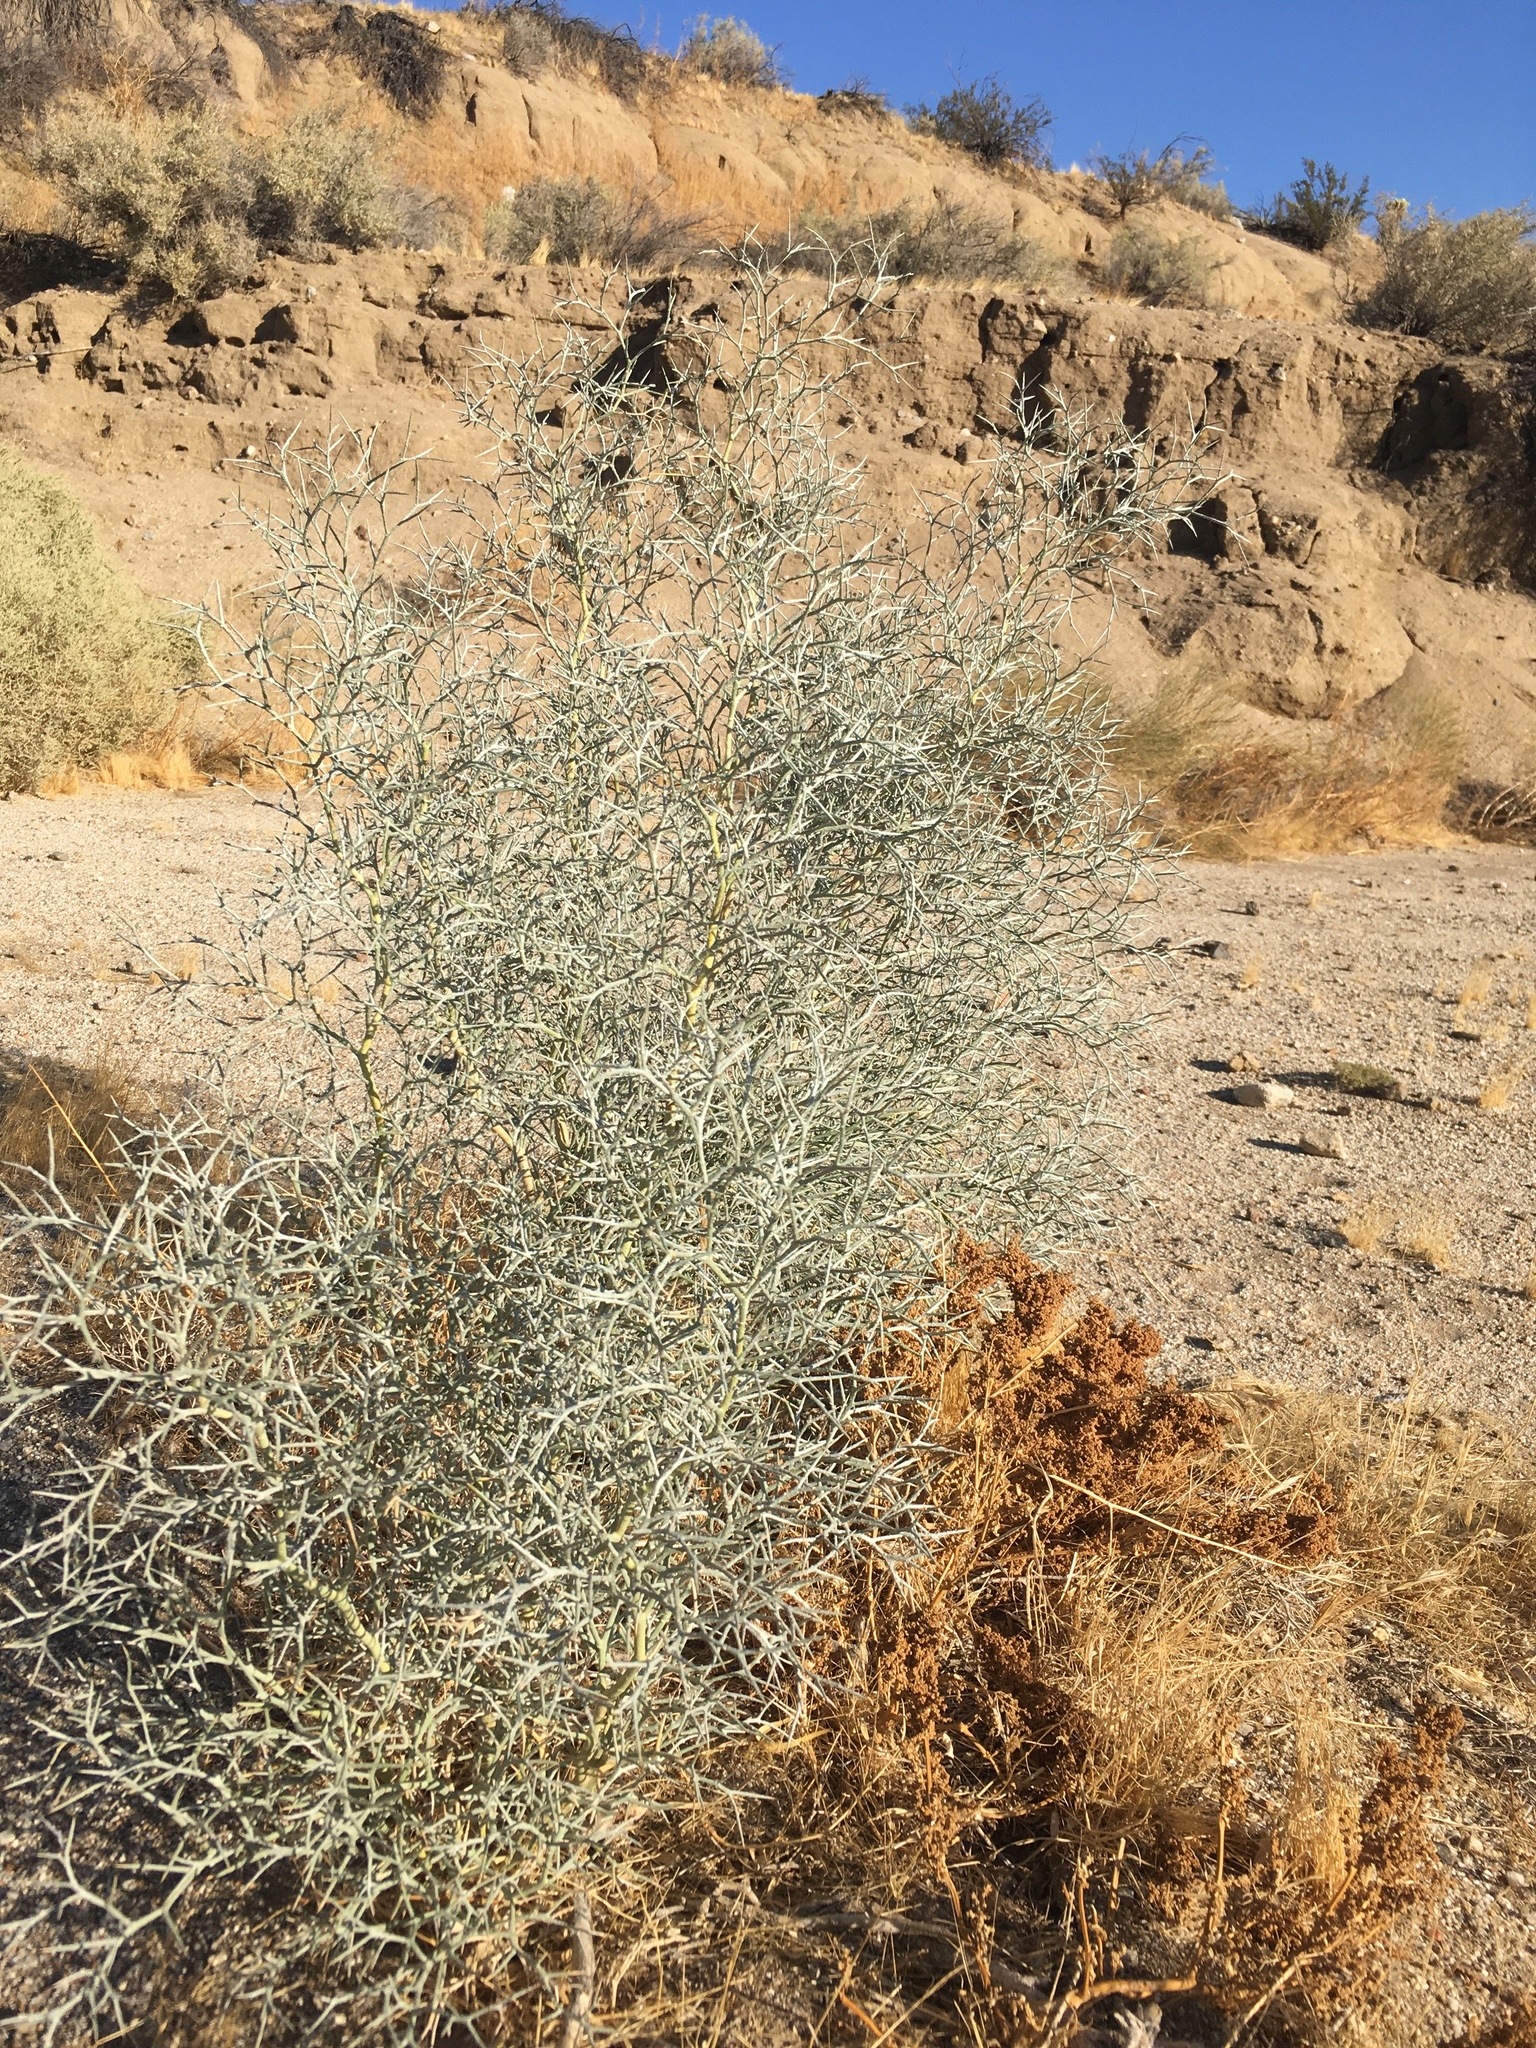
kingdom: Plantae
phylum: Tracheophyta
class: Magnoliopsida
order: Fabales
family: Fabaceae
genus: Psorothamnus
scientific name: Psorothamnus spinosus
